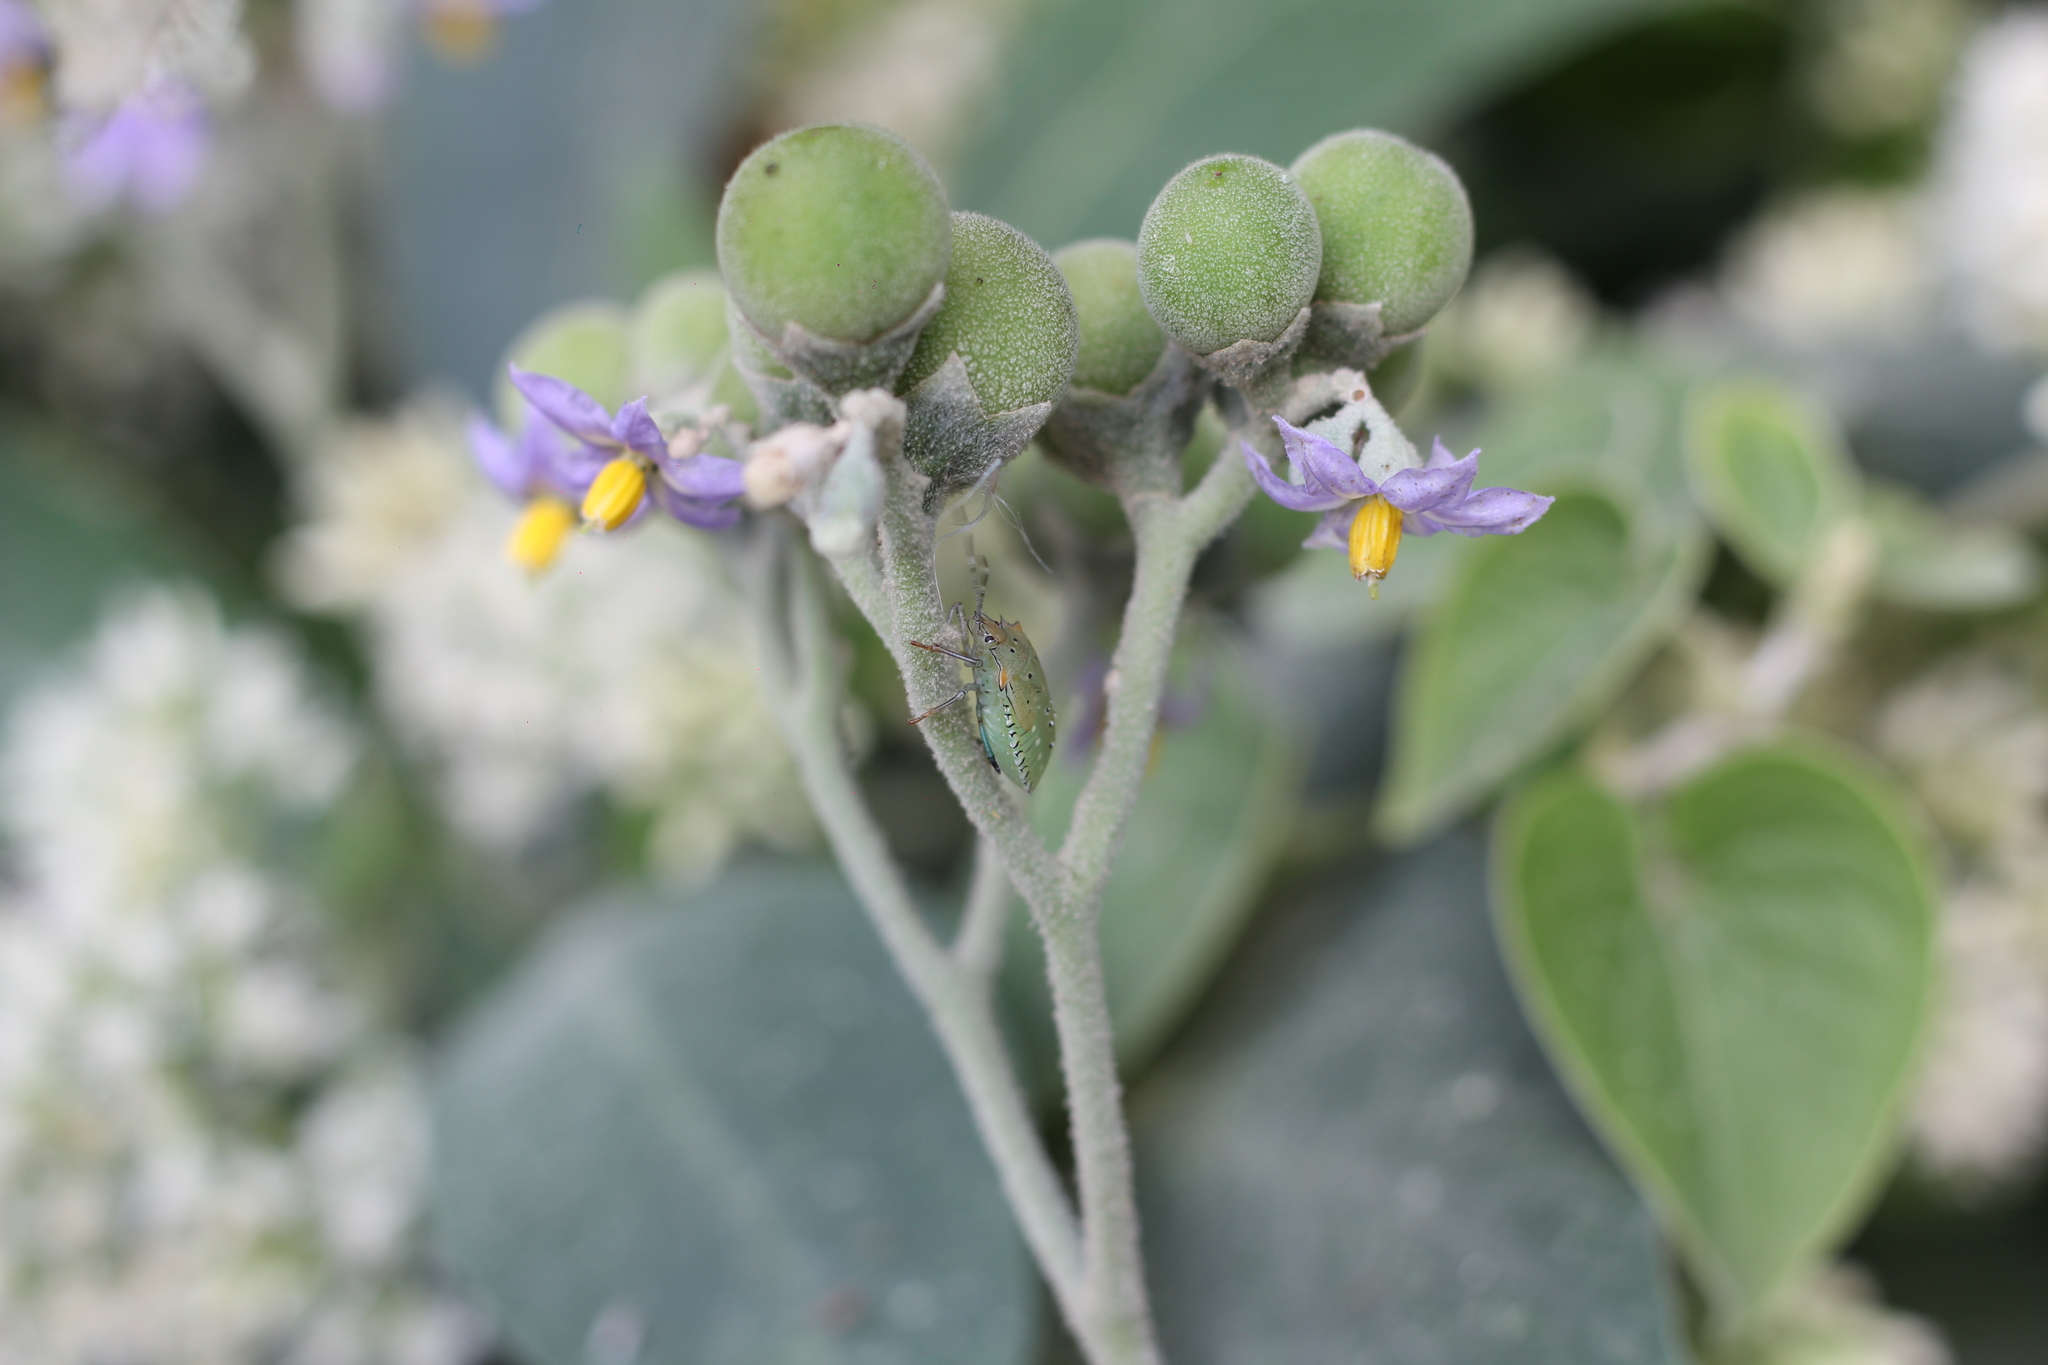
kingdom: Animalia
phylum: Arthropoda
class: Insecta
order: Hemiptera
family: Pentatomidae
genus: Arvelius
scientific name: Arvelius albopunctatus
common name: Tomato stink bug
